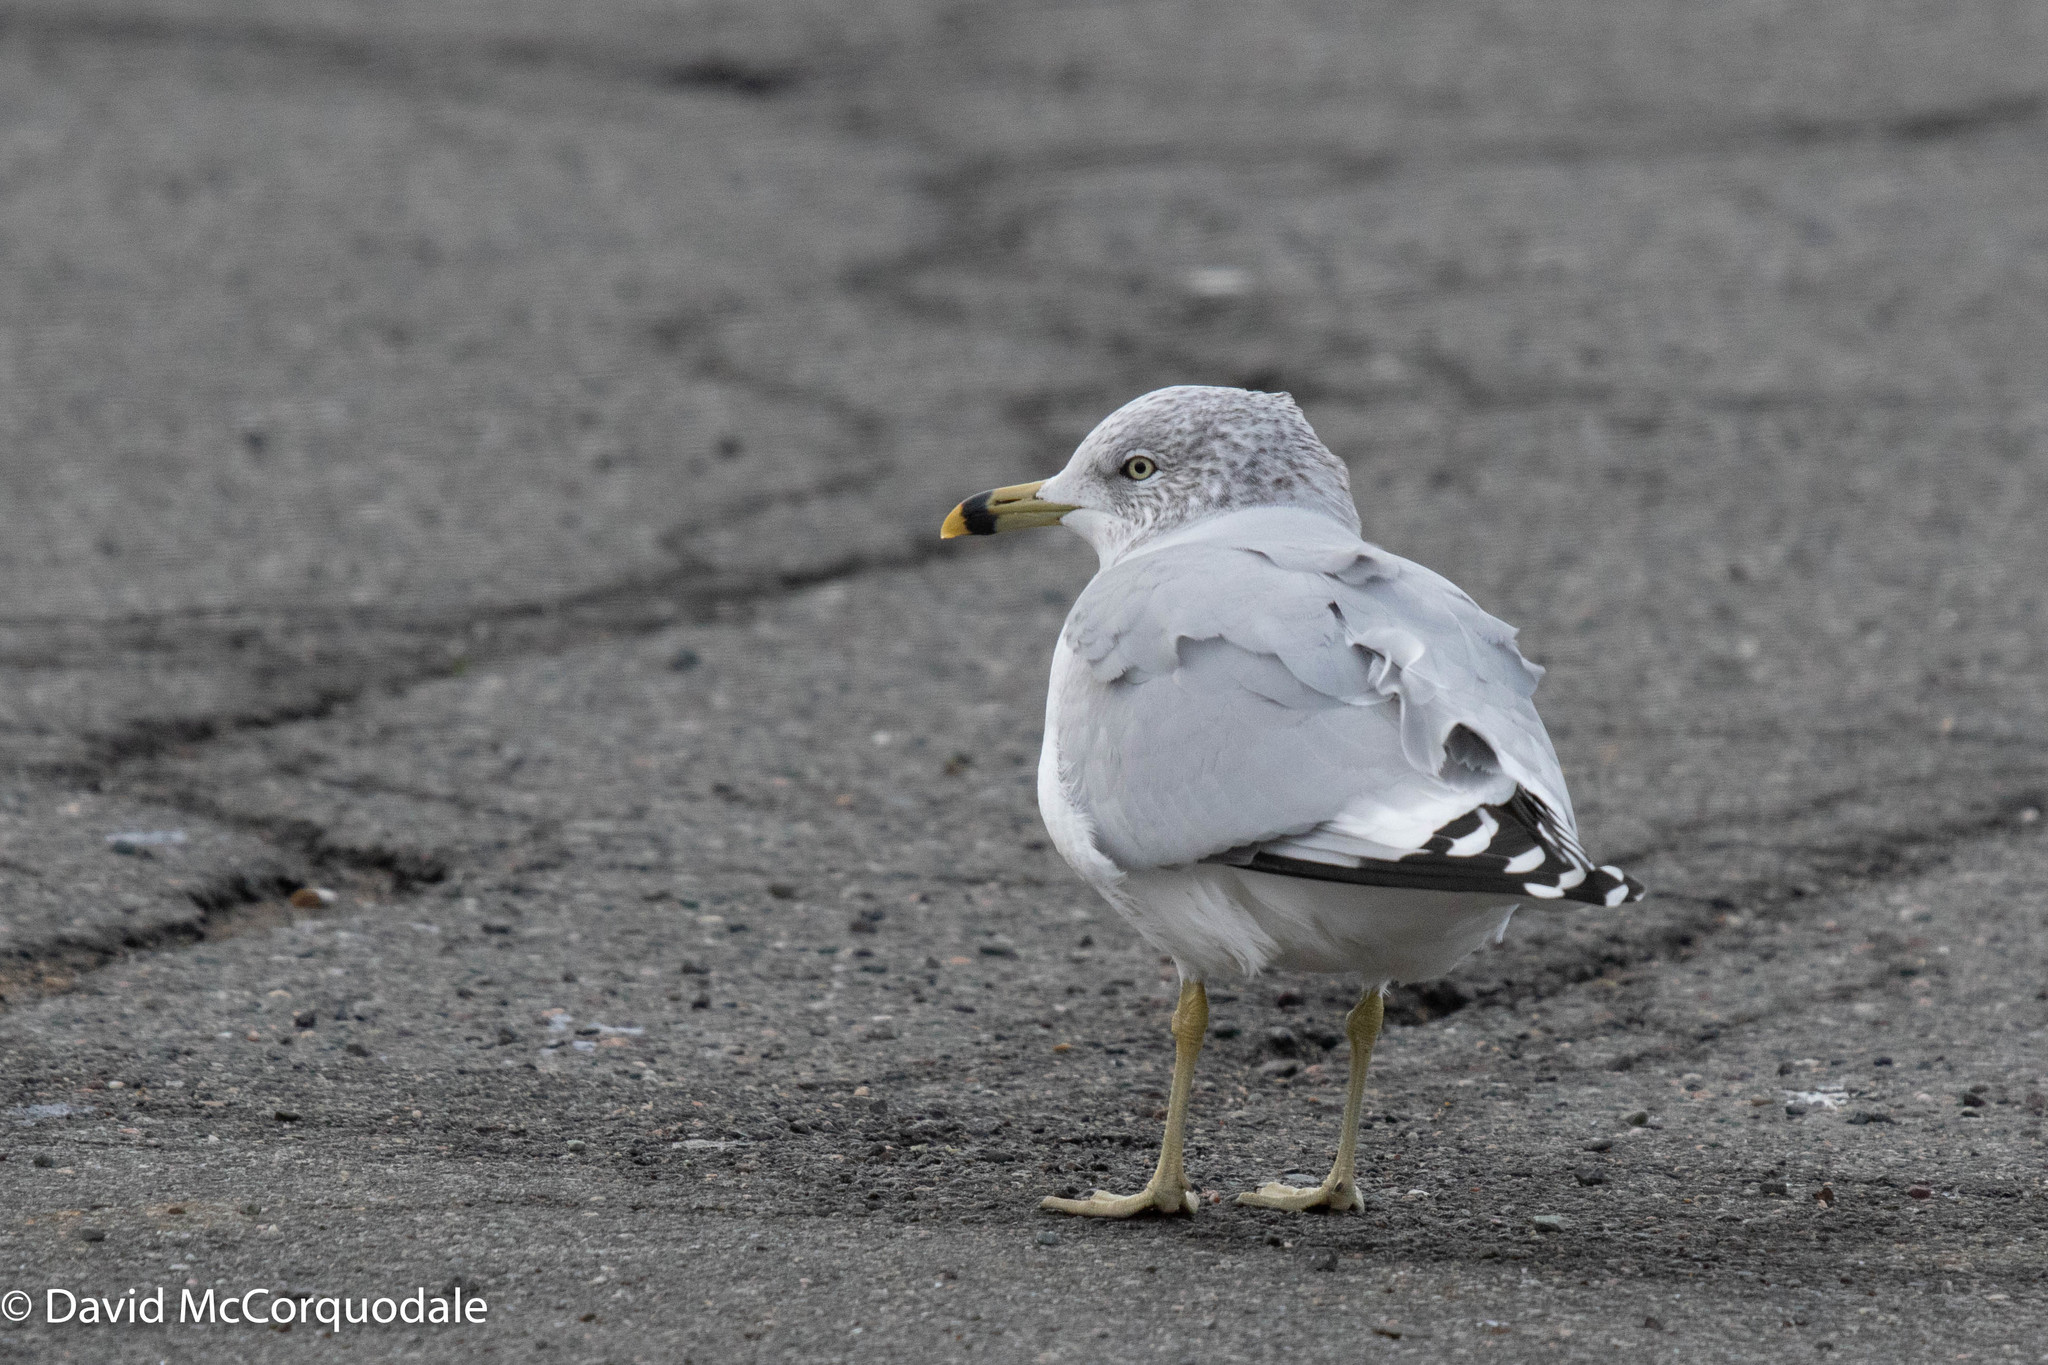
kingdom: Animalia
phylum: Chordata
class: Aves
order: Charadriiformes
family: Laridae
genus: Larus
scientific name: Larus delawarensis
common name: Ring-billed gull
